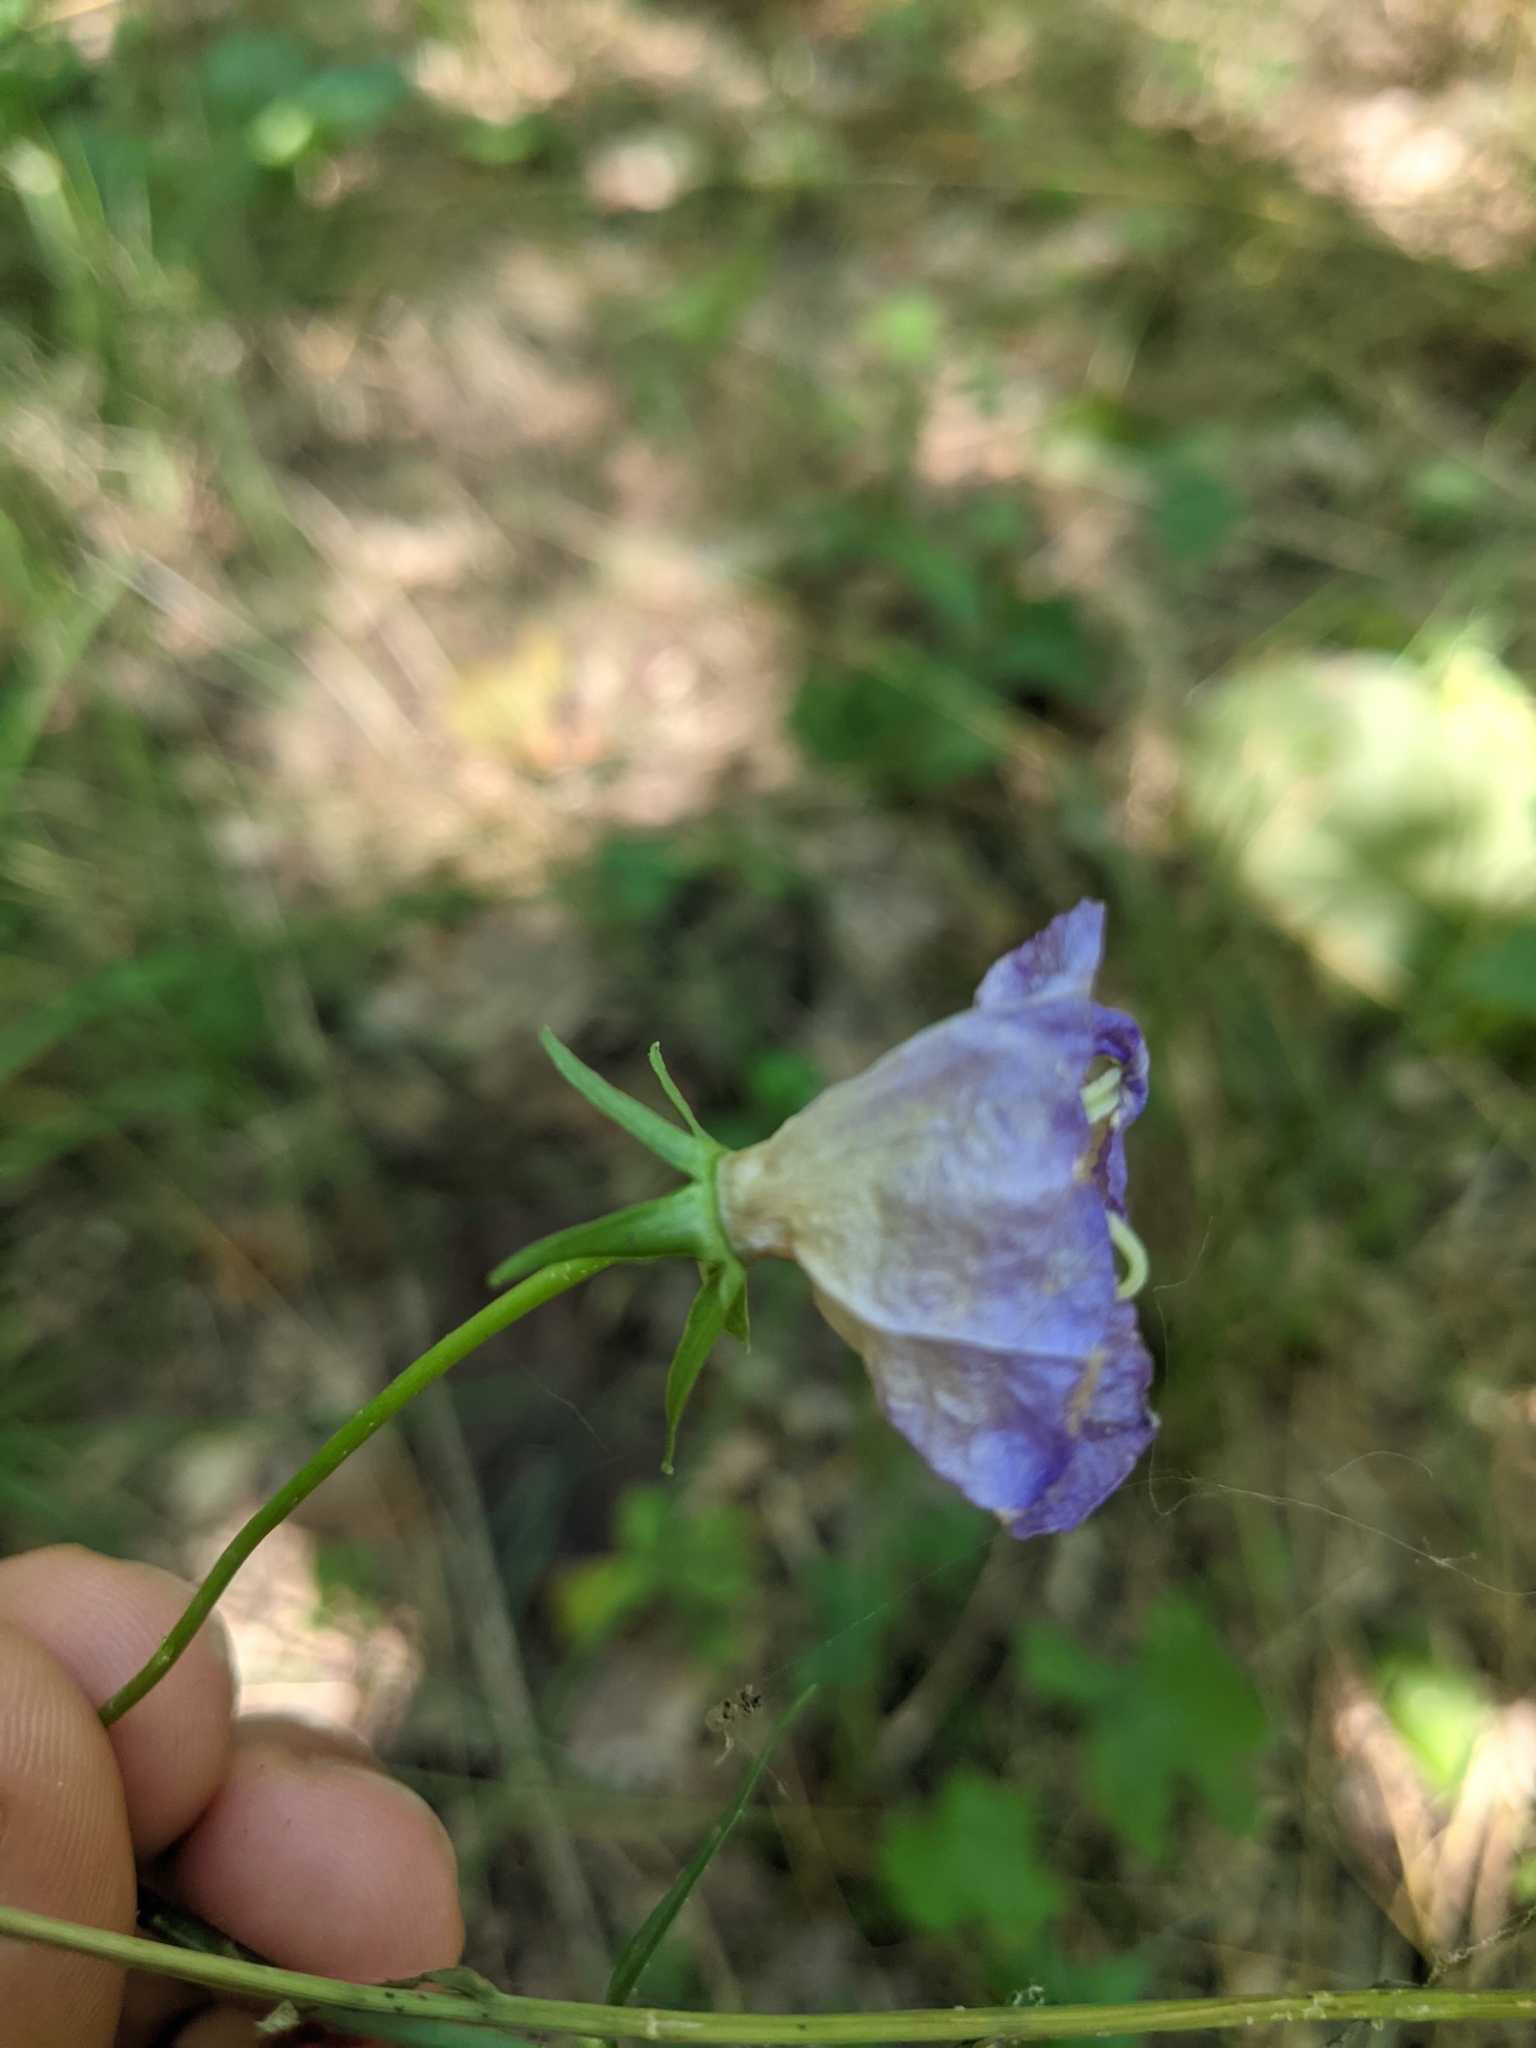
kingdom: Plantae
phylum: Tracheophyta
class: Magnoliopsida
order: Asterales
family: Campanulaceae
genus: Campanula
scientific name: Campanula persicifolia
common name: Peach-leaved bellflower
